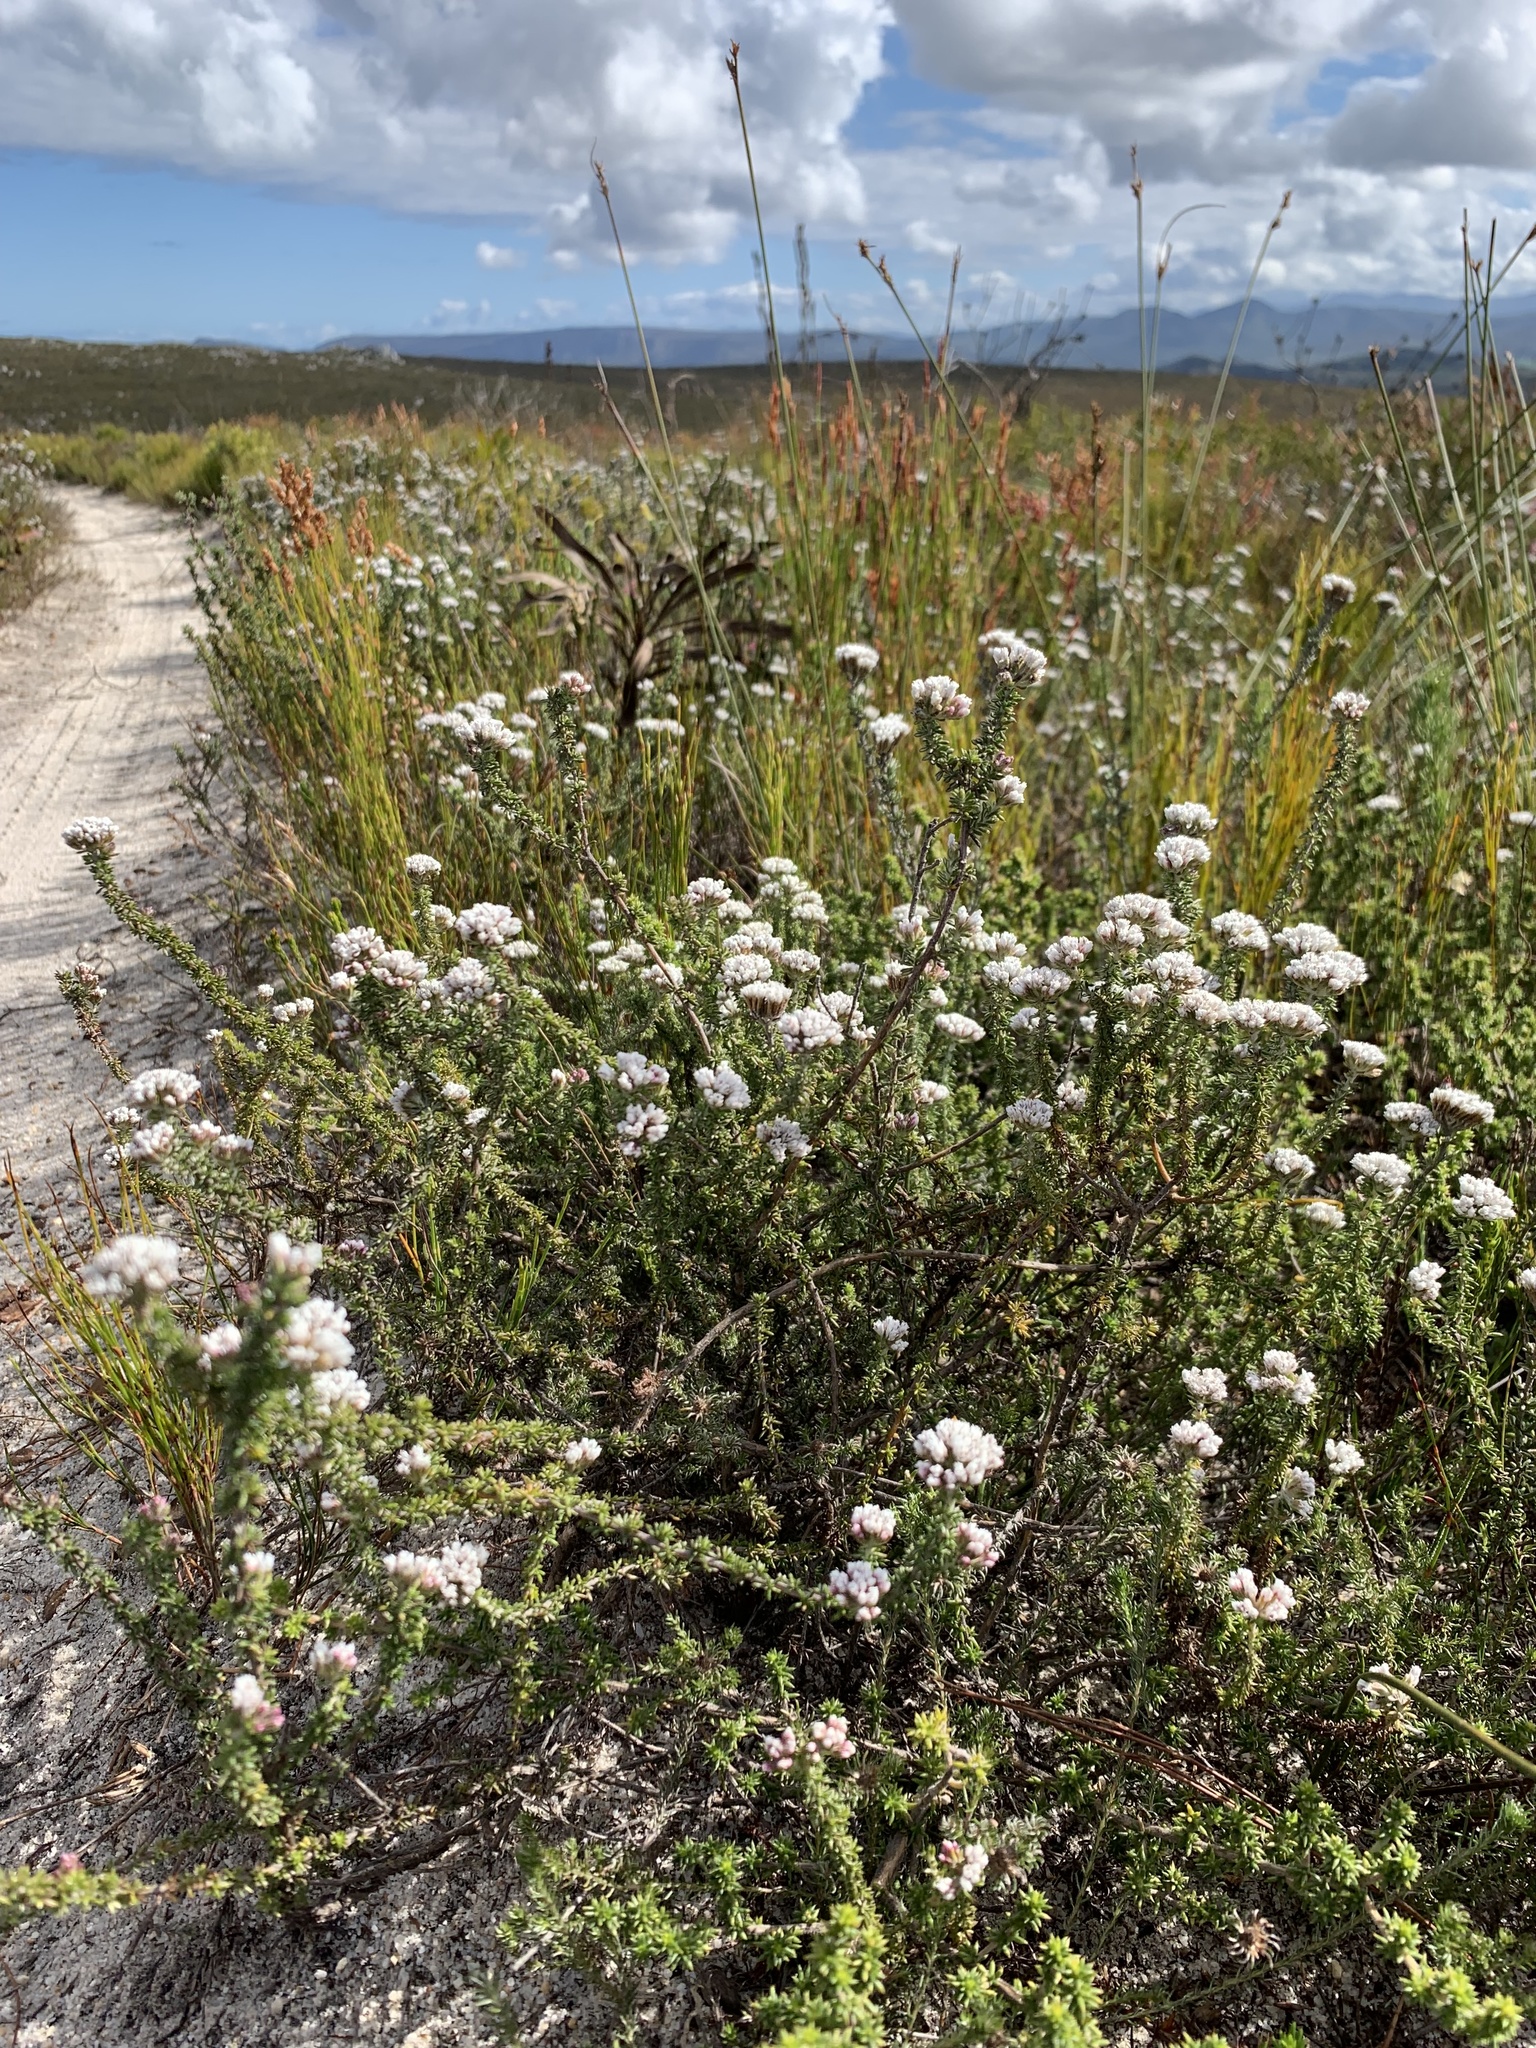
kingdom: Plantae
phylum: Tracheophyta
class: Magnoliopsida
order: Asterales
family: Asteraceae
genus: Metalasia
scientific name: Metalasia brevifolia
